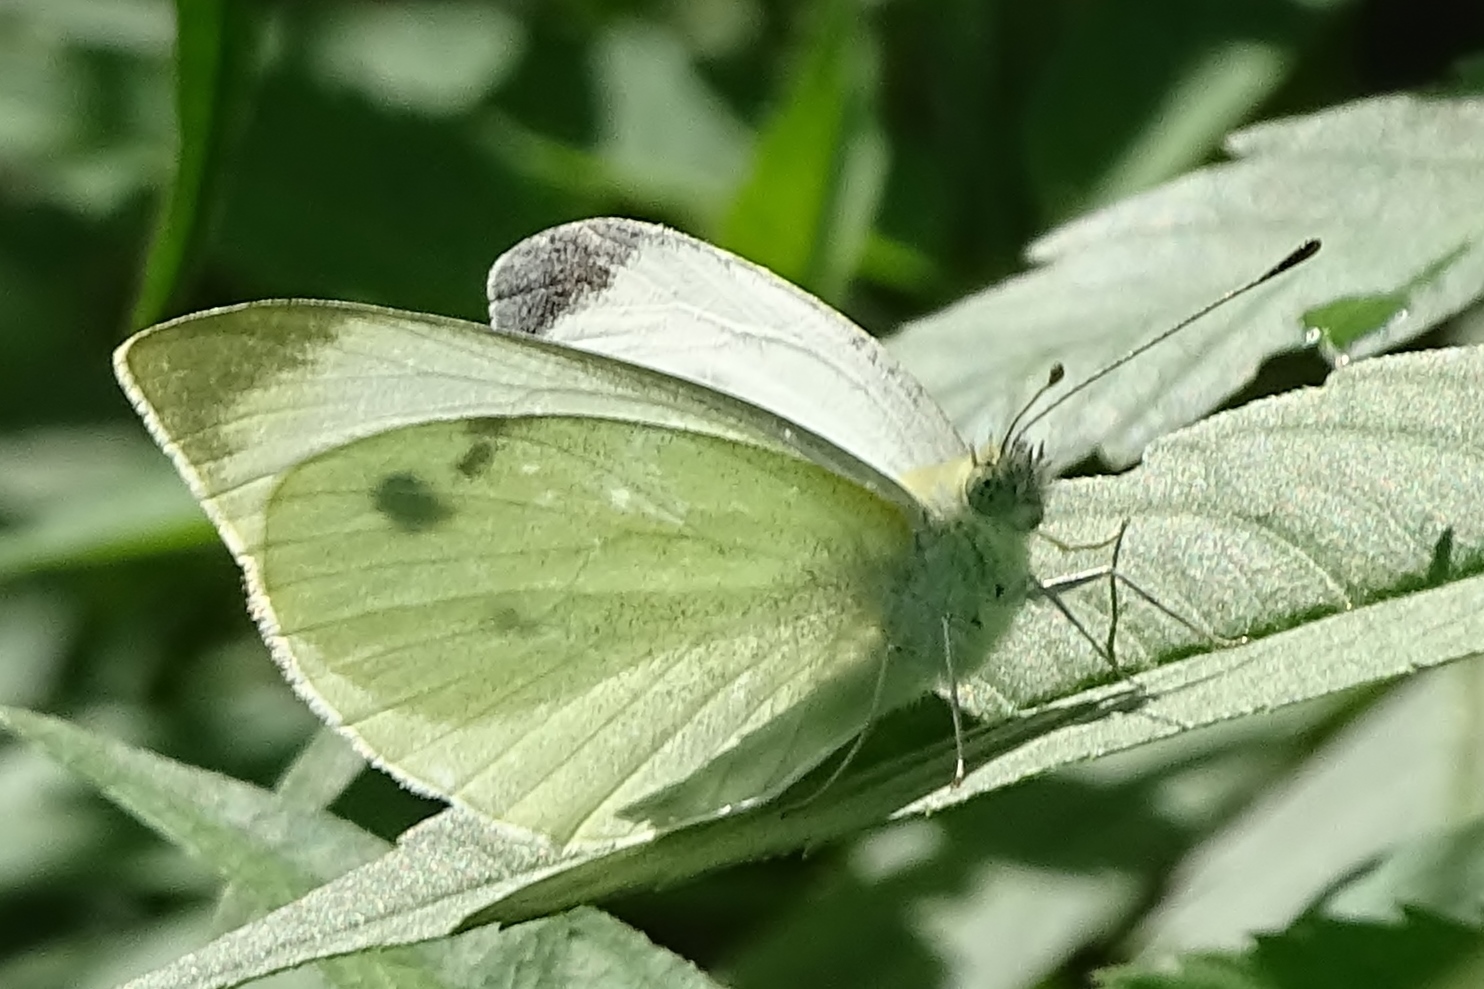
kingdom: Animalia
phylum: Arthropoda
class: Insecta
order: Lepidoptera
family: Pieridae
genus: Pieris
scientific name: Pieris rapae
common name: Small white
